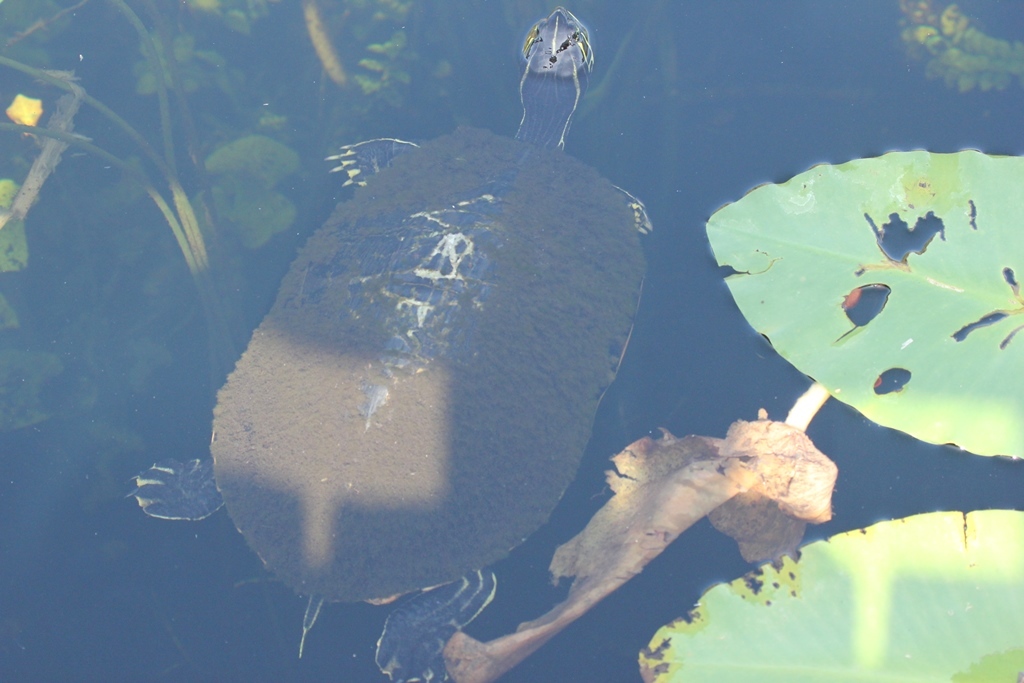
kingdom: Animalia
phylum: Chordata
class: Testudines
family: Emydidae
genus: Pseudemys
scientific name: Pseudemys nelsoni
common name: Florida red-bellied turtle
